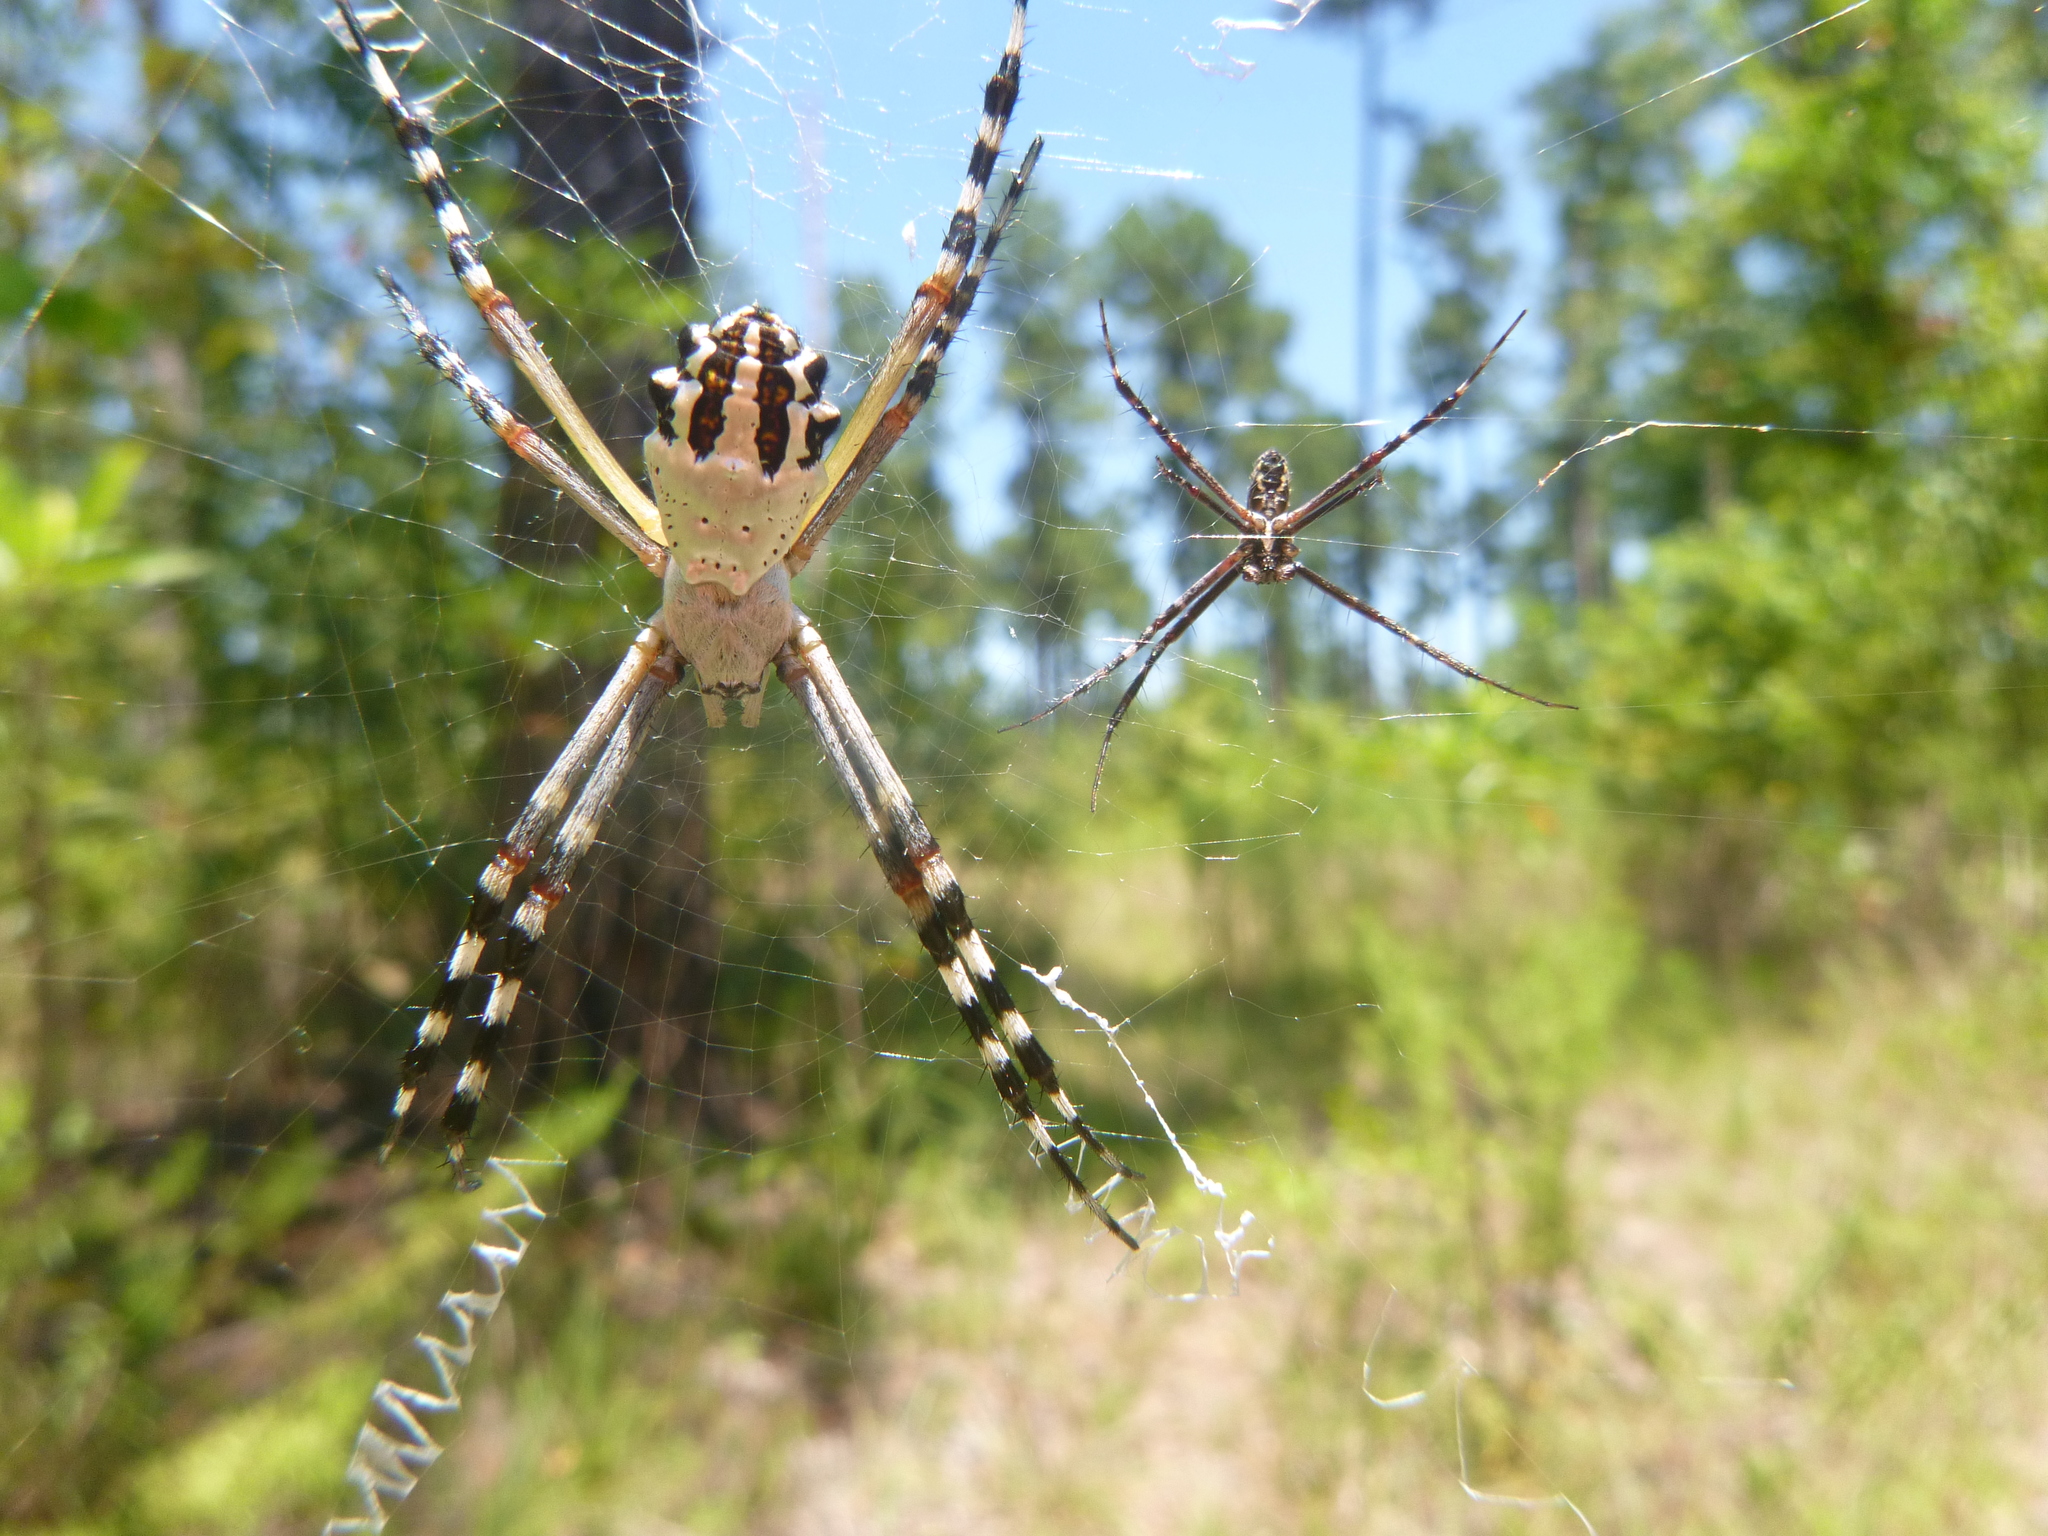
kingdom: Animalia
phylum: Arthropoda
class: Arachnida
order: Araneae
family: Araneidae
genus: Argiope
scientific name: Argiope florida
